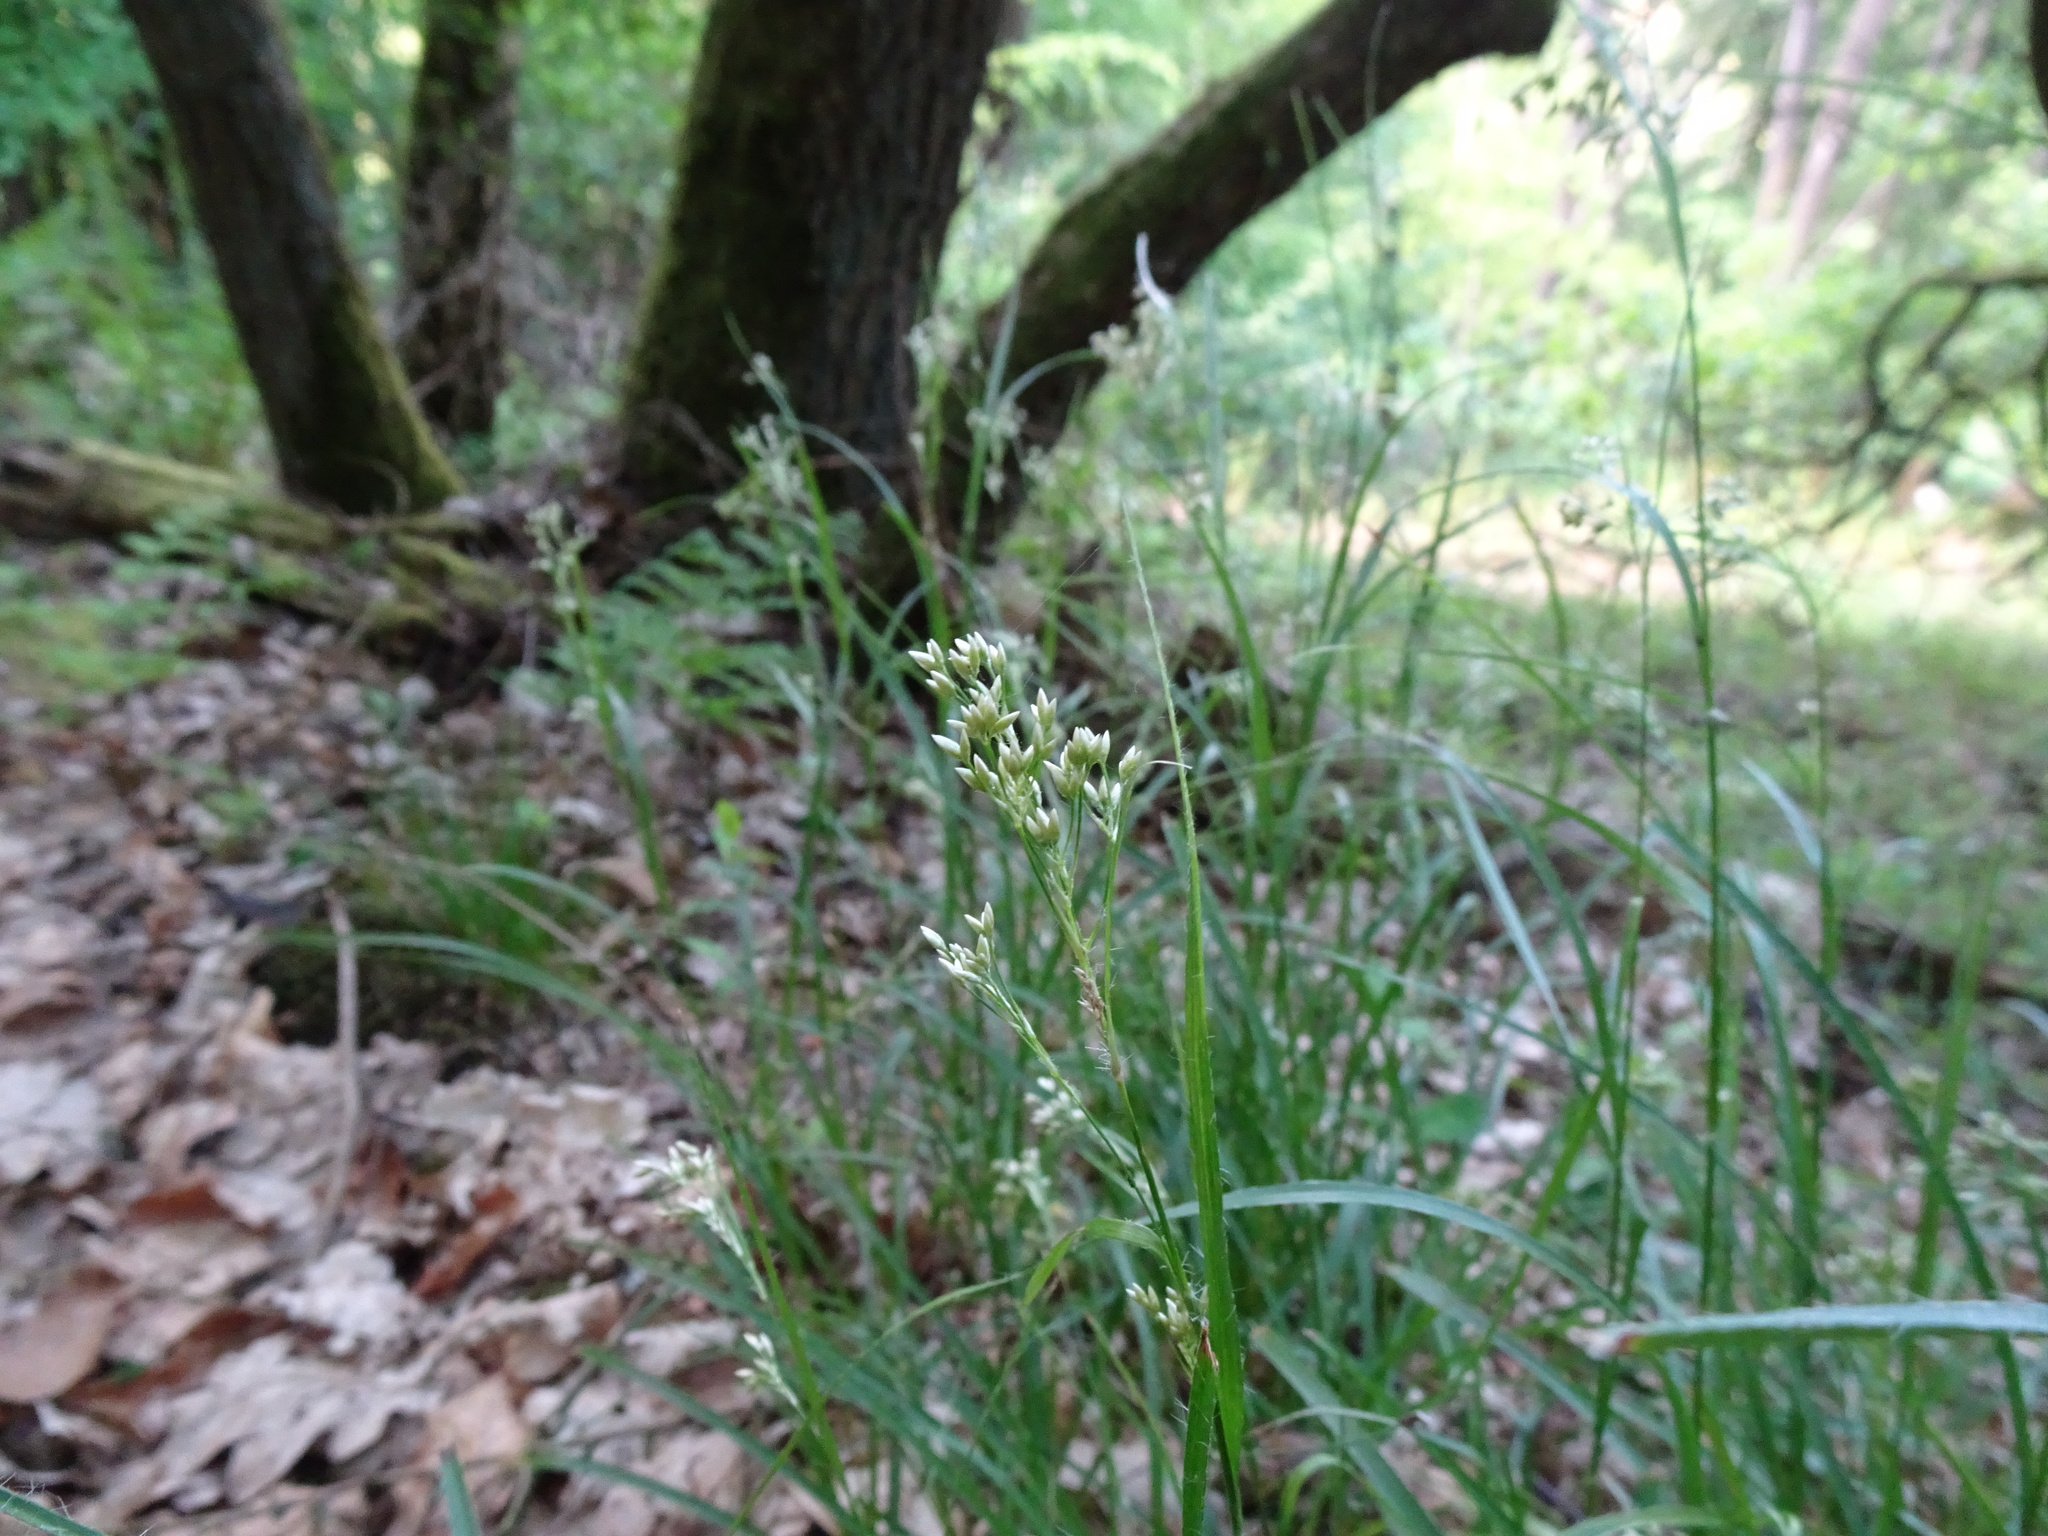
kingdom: Plantae
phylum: Tracheophyta
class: Liliopsida
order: Poales
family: Juncaceae
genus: Luzula
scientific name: Luzula luzuloides
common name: White wood-rush
